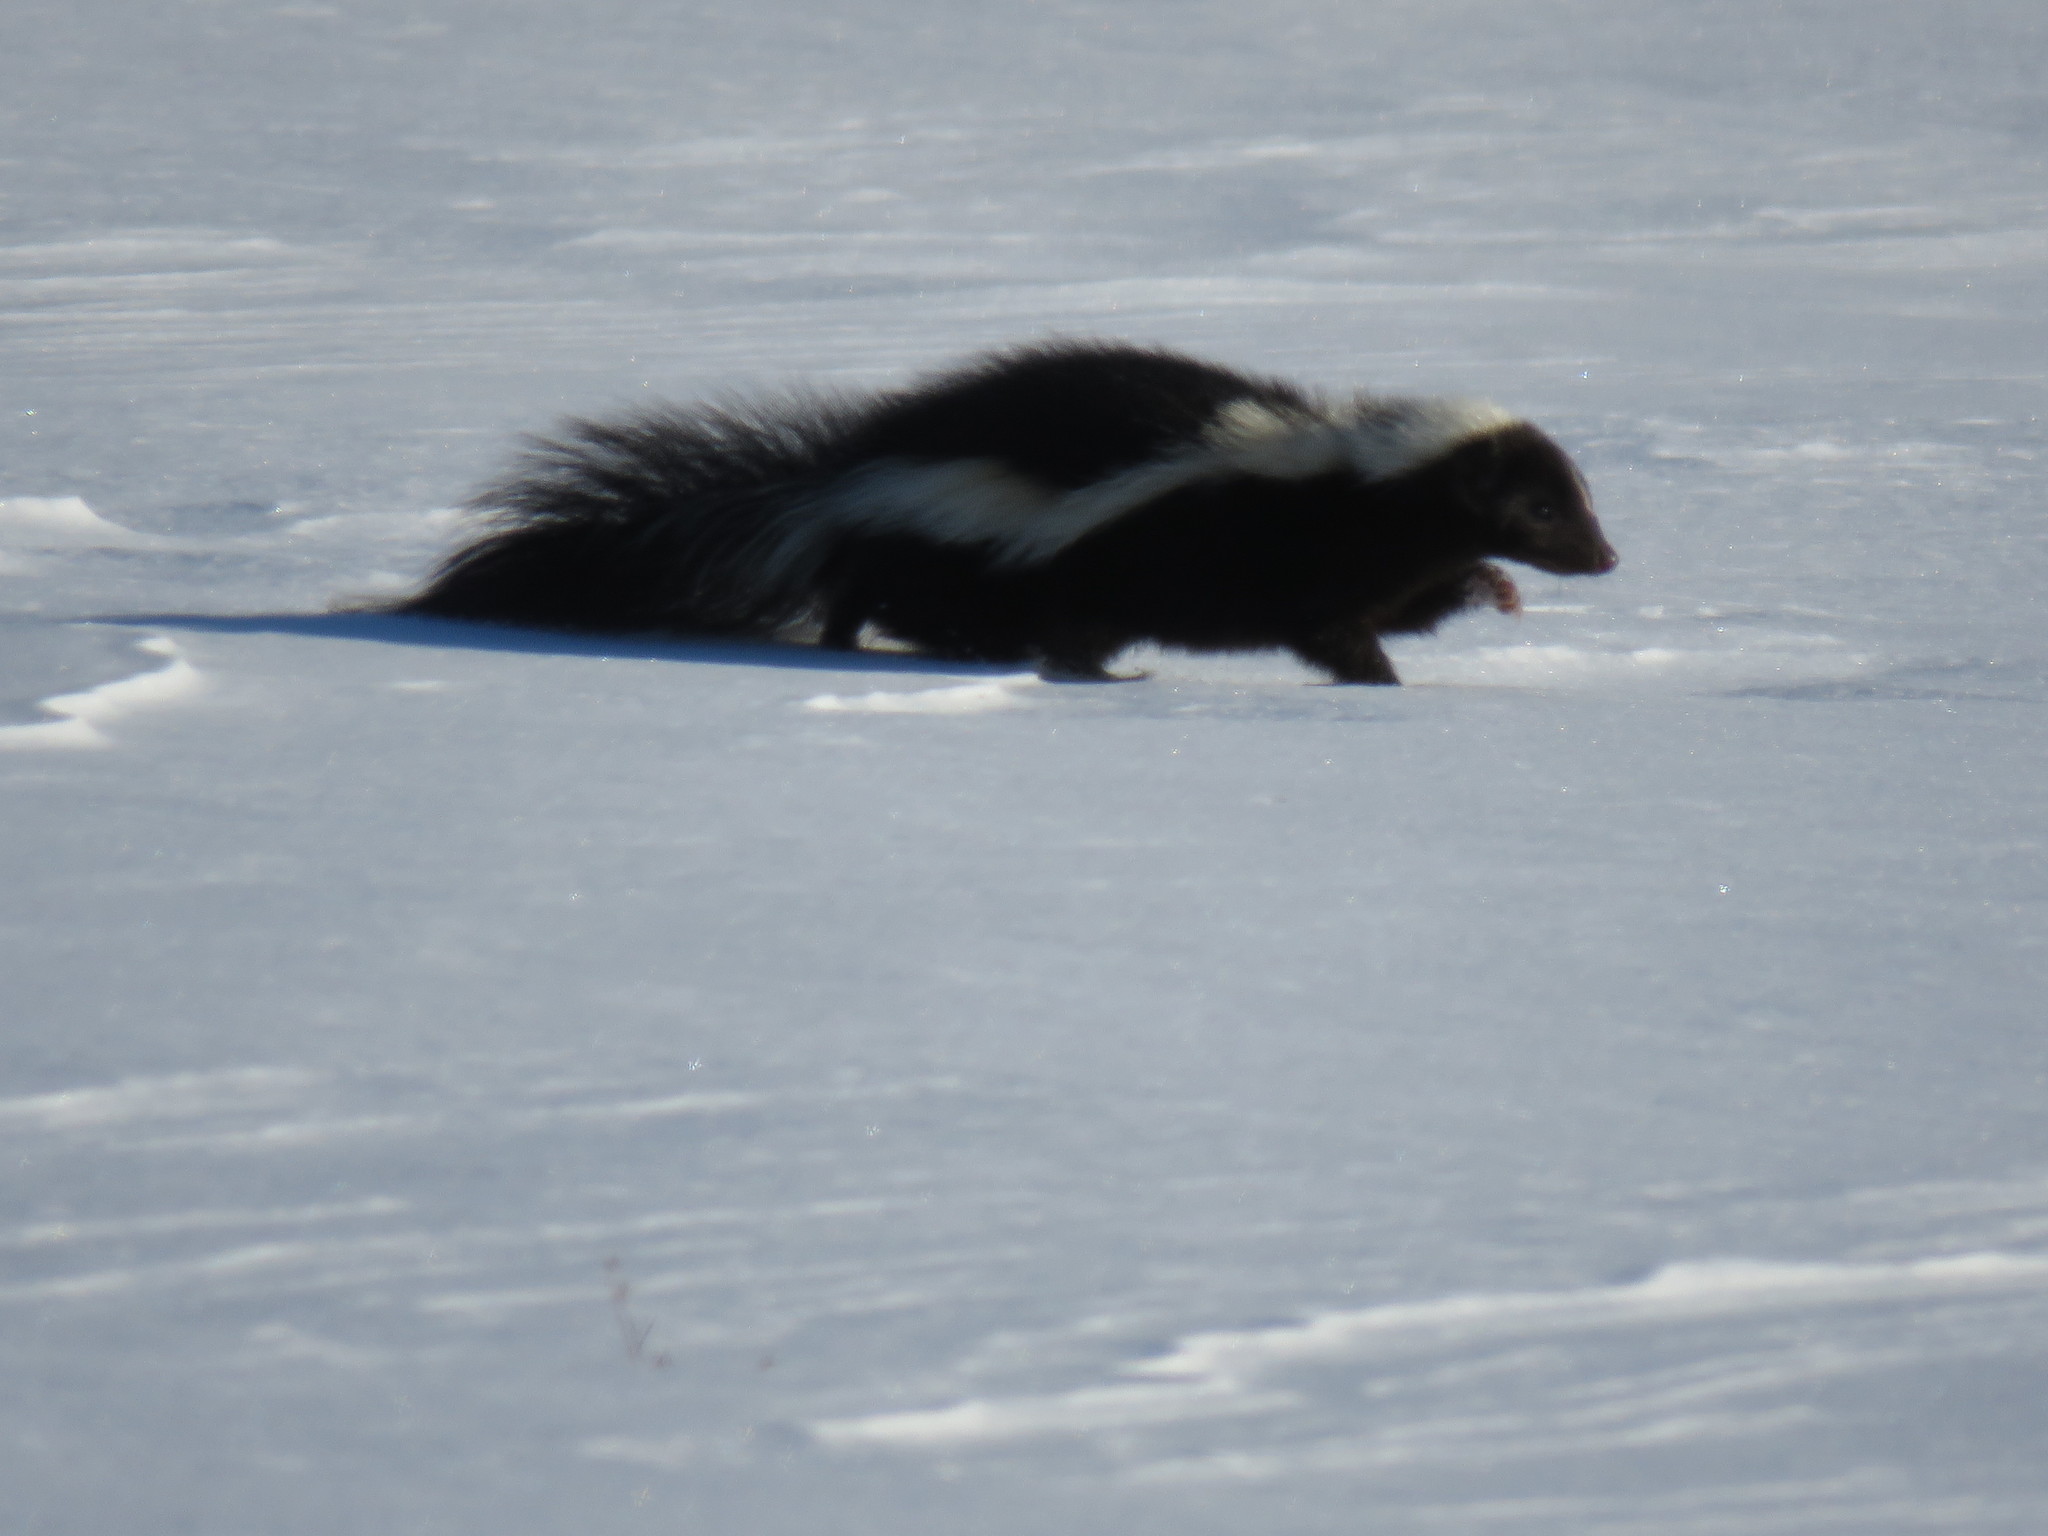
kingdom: Animalia
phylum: Chordata
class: Mammalia
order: Carnivora
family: Mephitidae
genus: Mephitis
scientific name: Mephitis mephitis
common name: Striped skunk
